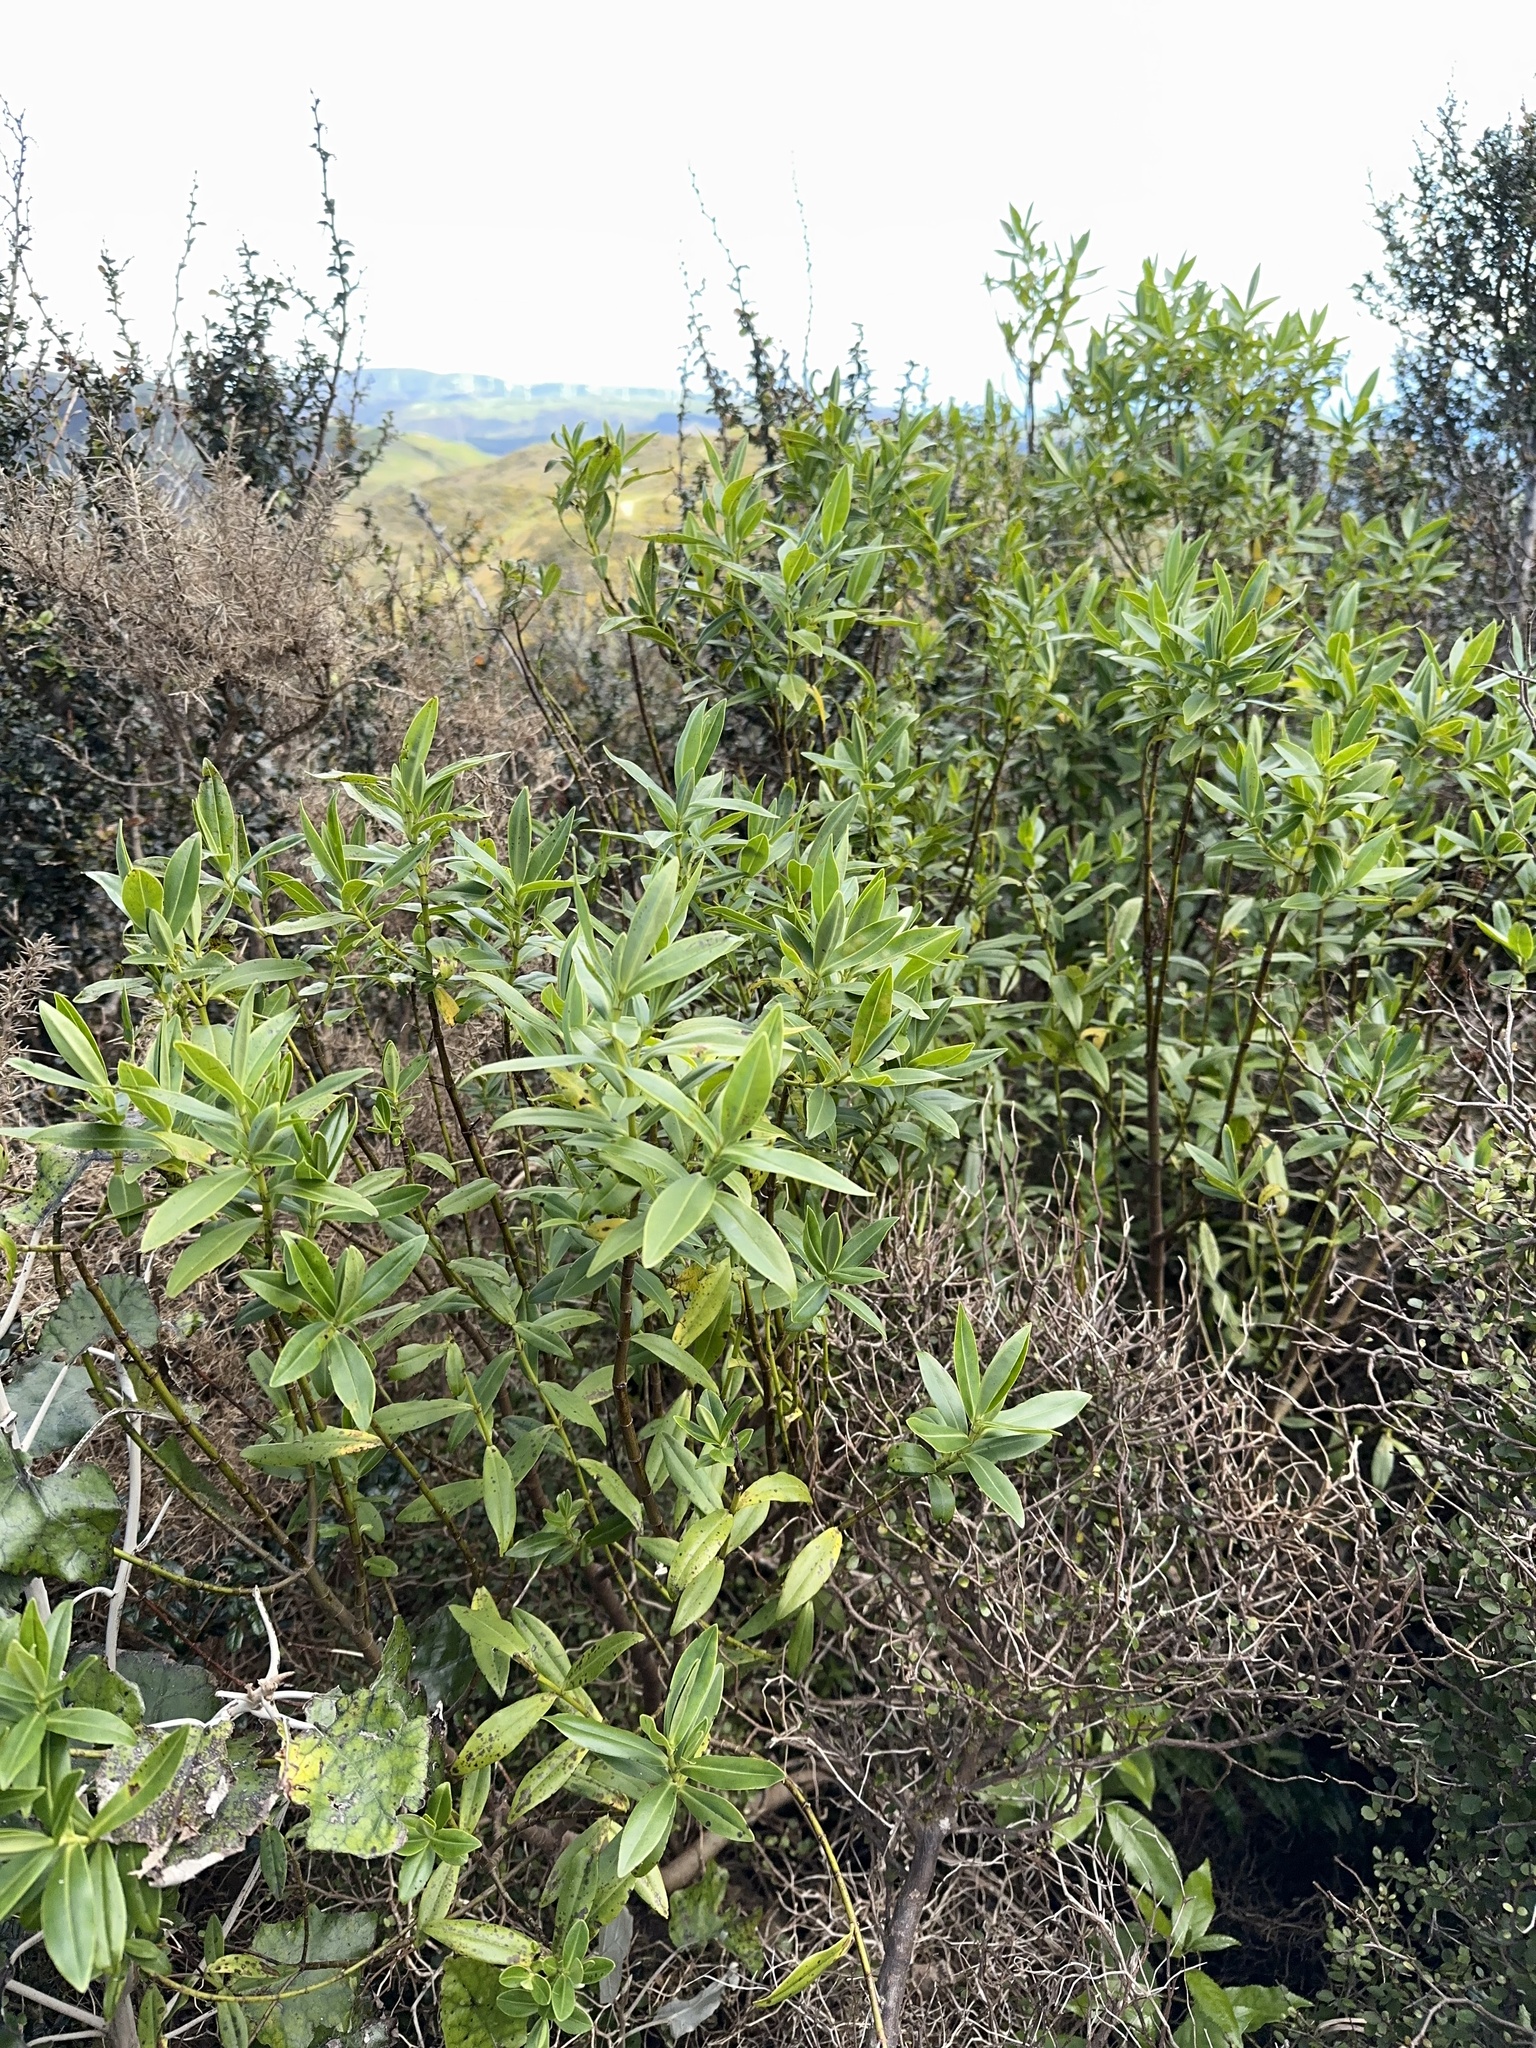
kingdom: Plantae
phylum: Tracheophyta
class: Magnoliopsida
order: Lamiales
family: Plantaginaceae
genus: Veronica
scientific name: Veronica stricta
